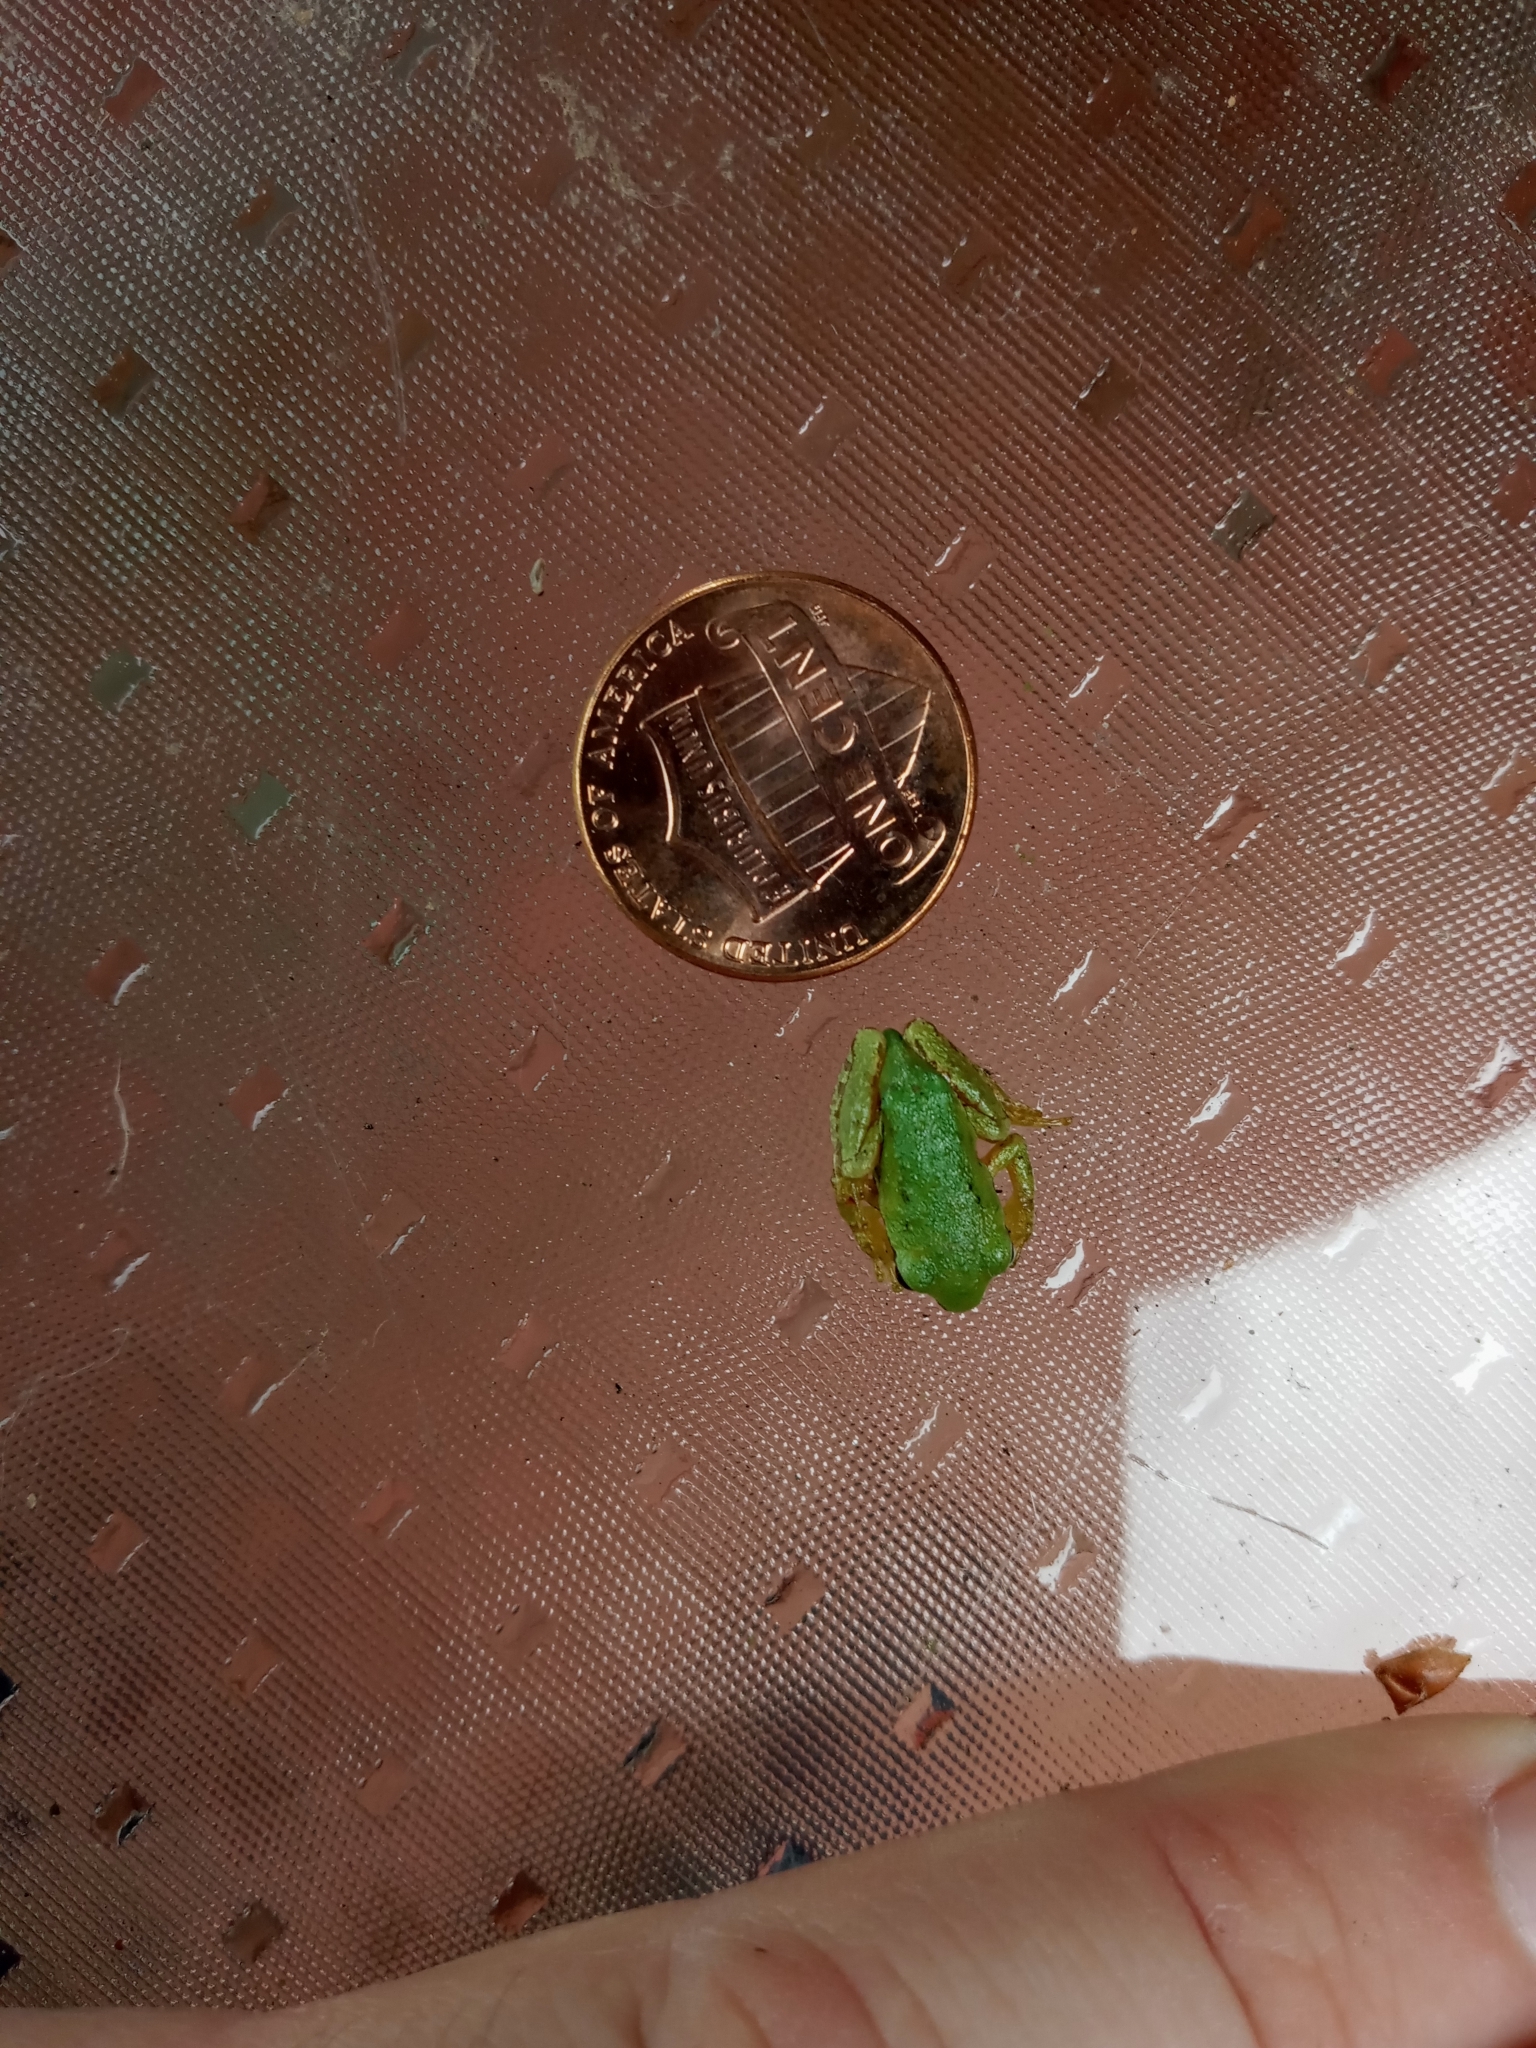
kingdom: Animalia
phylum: Chordata
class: Amphibia
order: Anura
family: Hylidae
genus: Pseudacris
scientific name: Pseudacris regilla
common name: Pacific chorus frog
